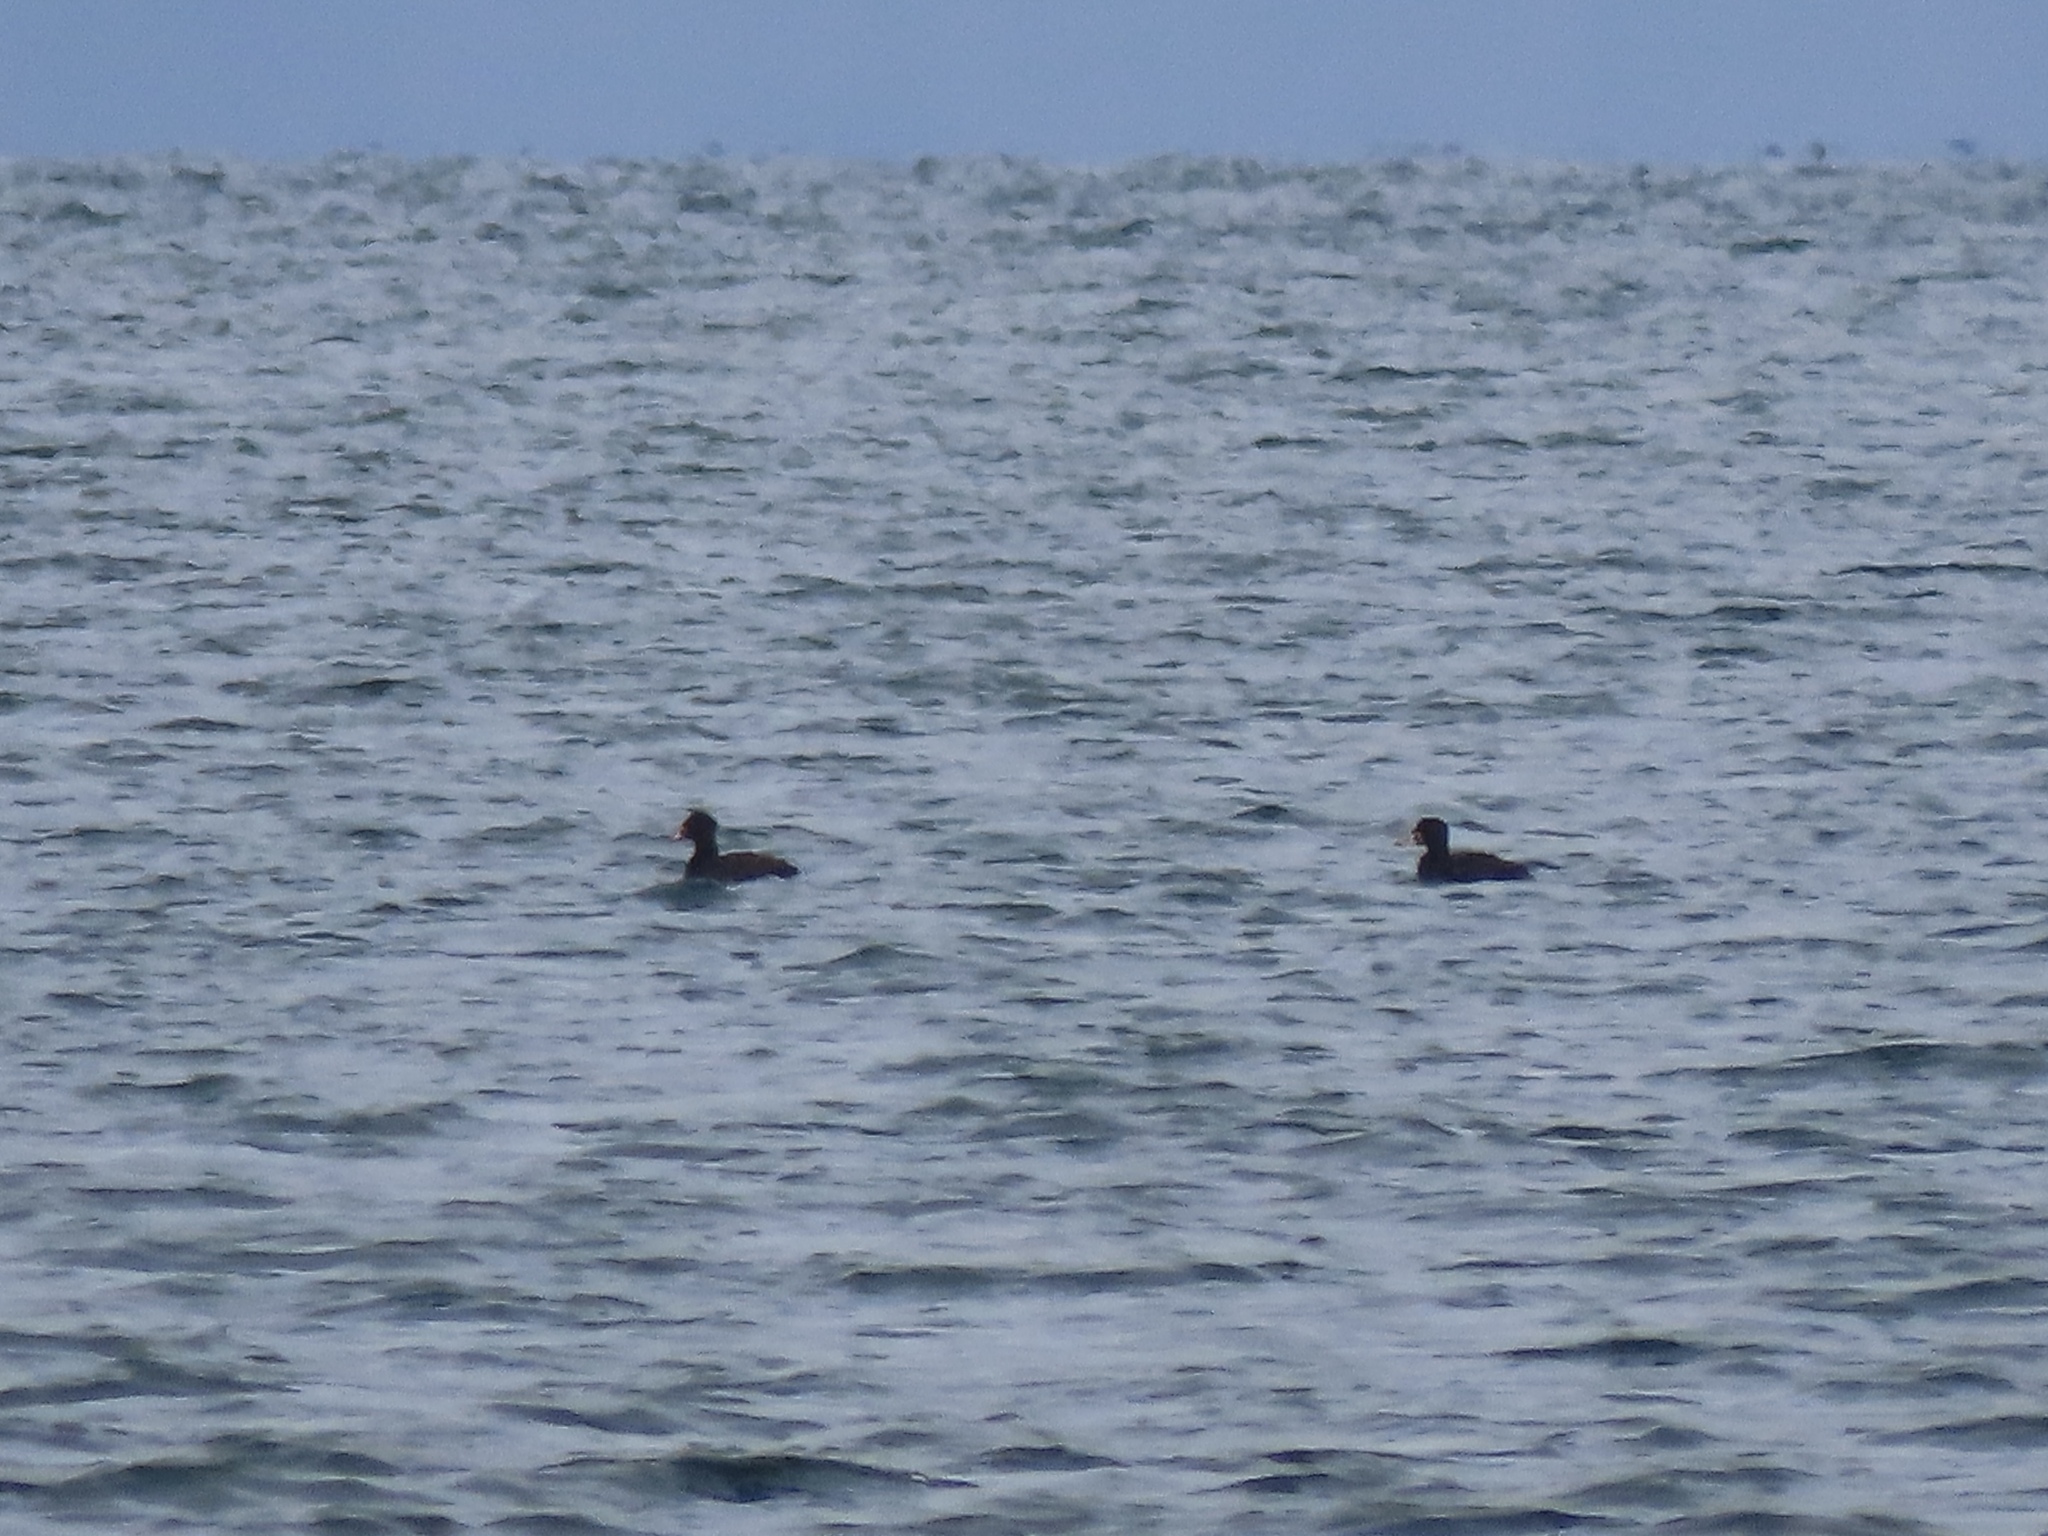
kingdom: Animalia
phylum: Chordata
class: Aves
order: Anseriformes
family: Anatidae
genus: Melanitta
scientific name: Melanitta perspicillata
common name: Surf scoter
